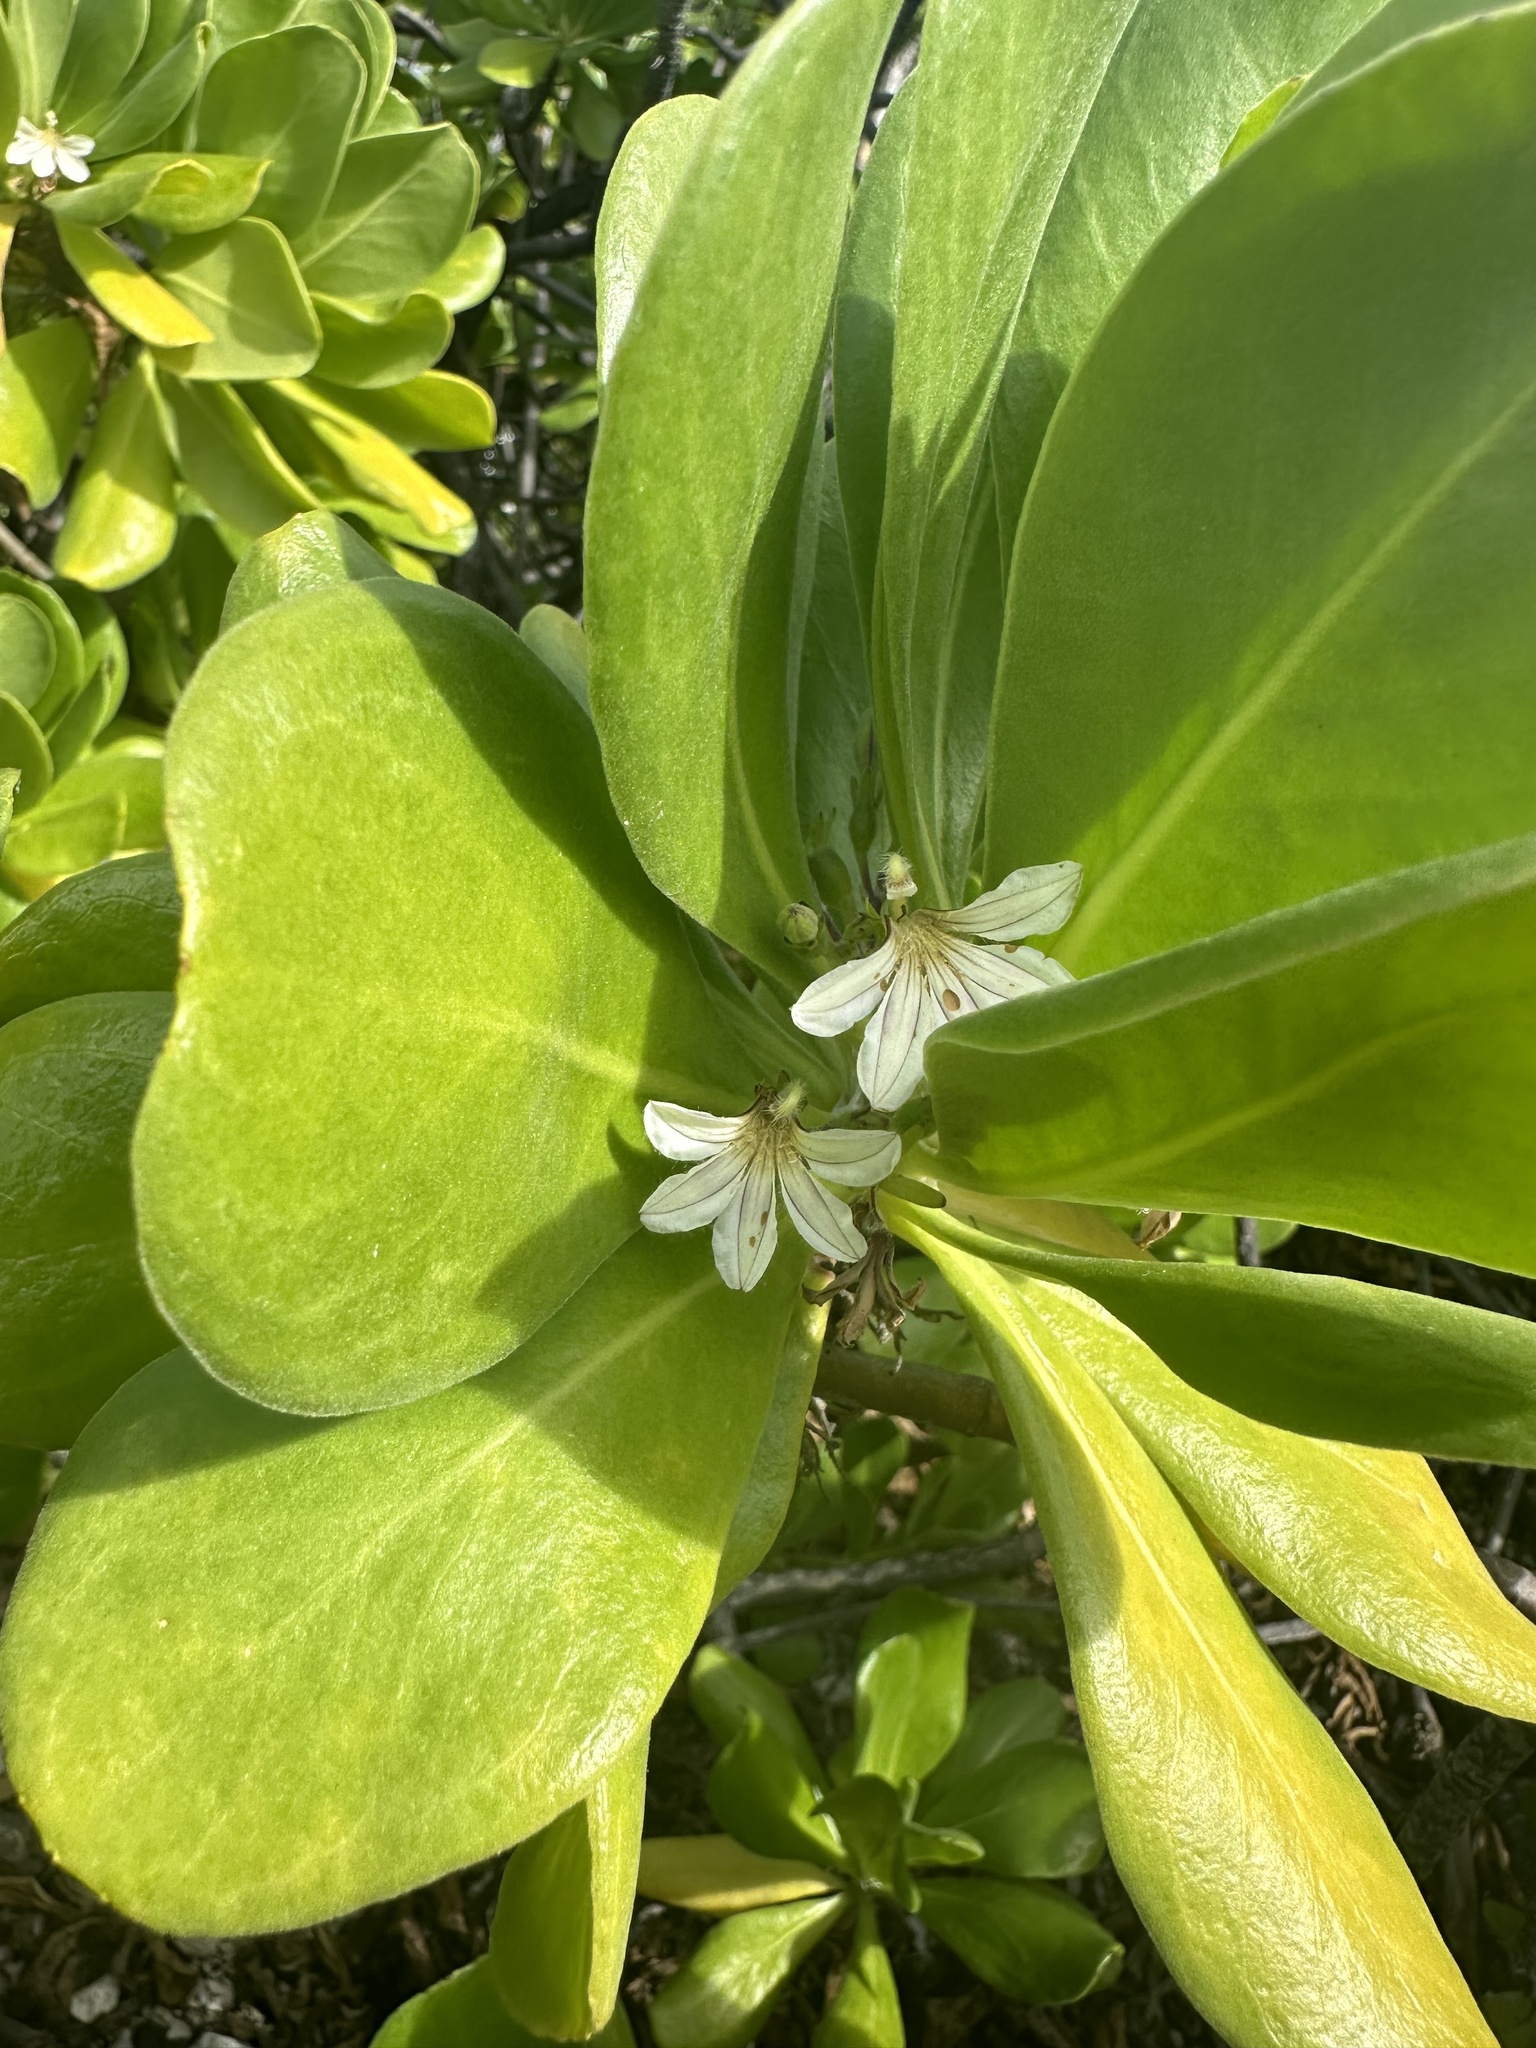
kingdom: Plantae
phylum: Tracheophyta
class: Magnoliopsida
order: Asterales
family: Goodeniaceae
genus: Scaevola
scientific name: Scaevola taccada
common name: Sea lettucetree
